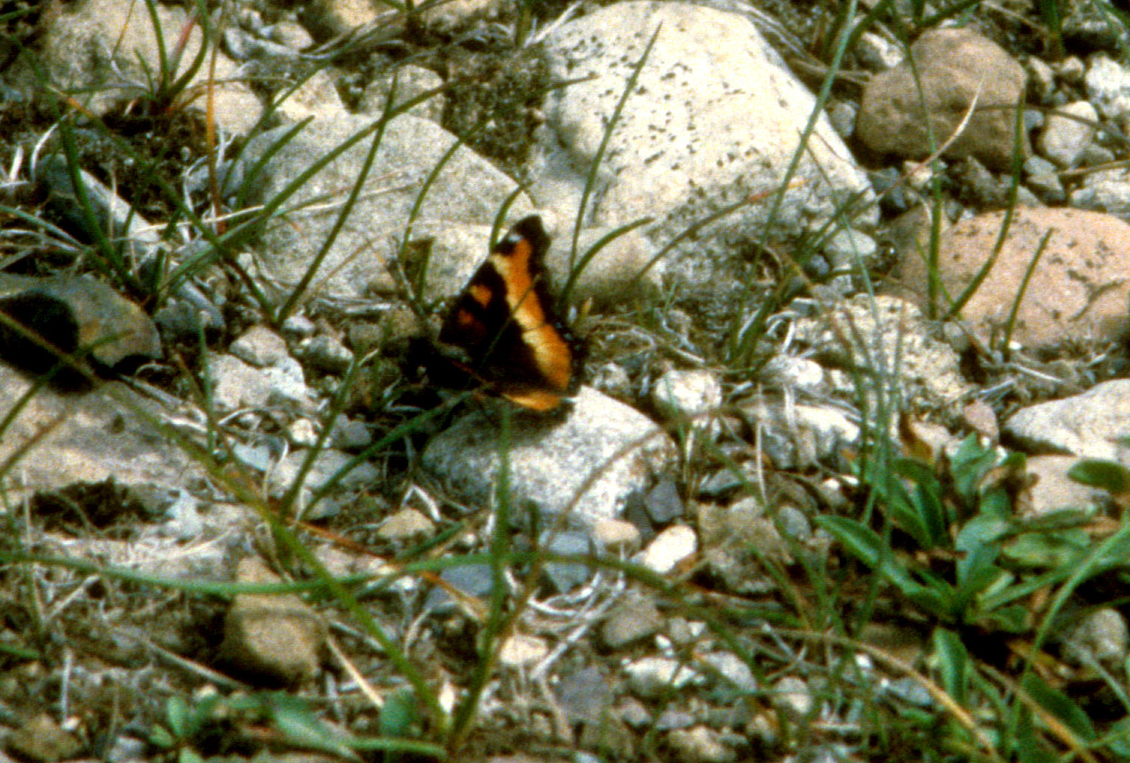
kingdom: Animalia
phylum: Arthropoda
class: Insecta
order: Lepidoptera
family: Nymphalidae
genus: Aglais
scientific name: Aglais milberti
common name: Milbert's tortoiseshell
